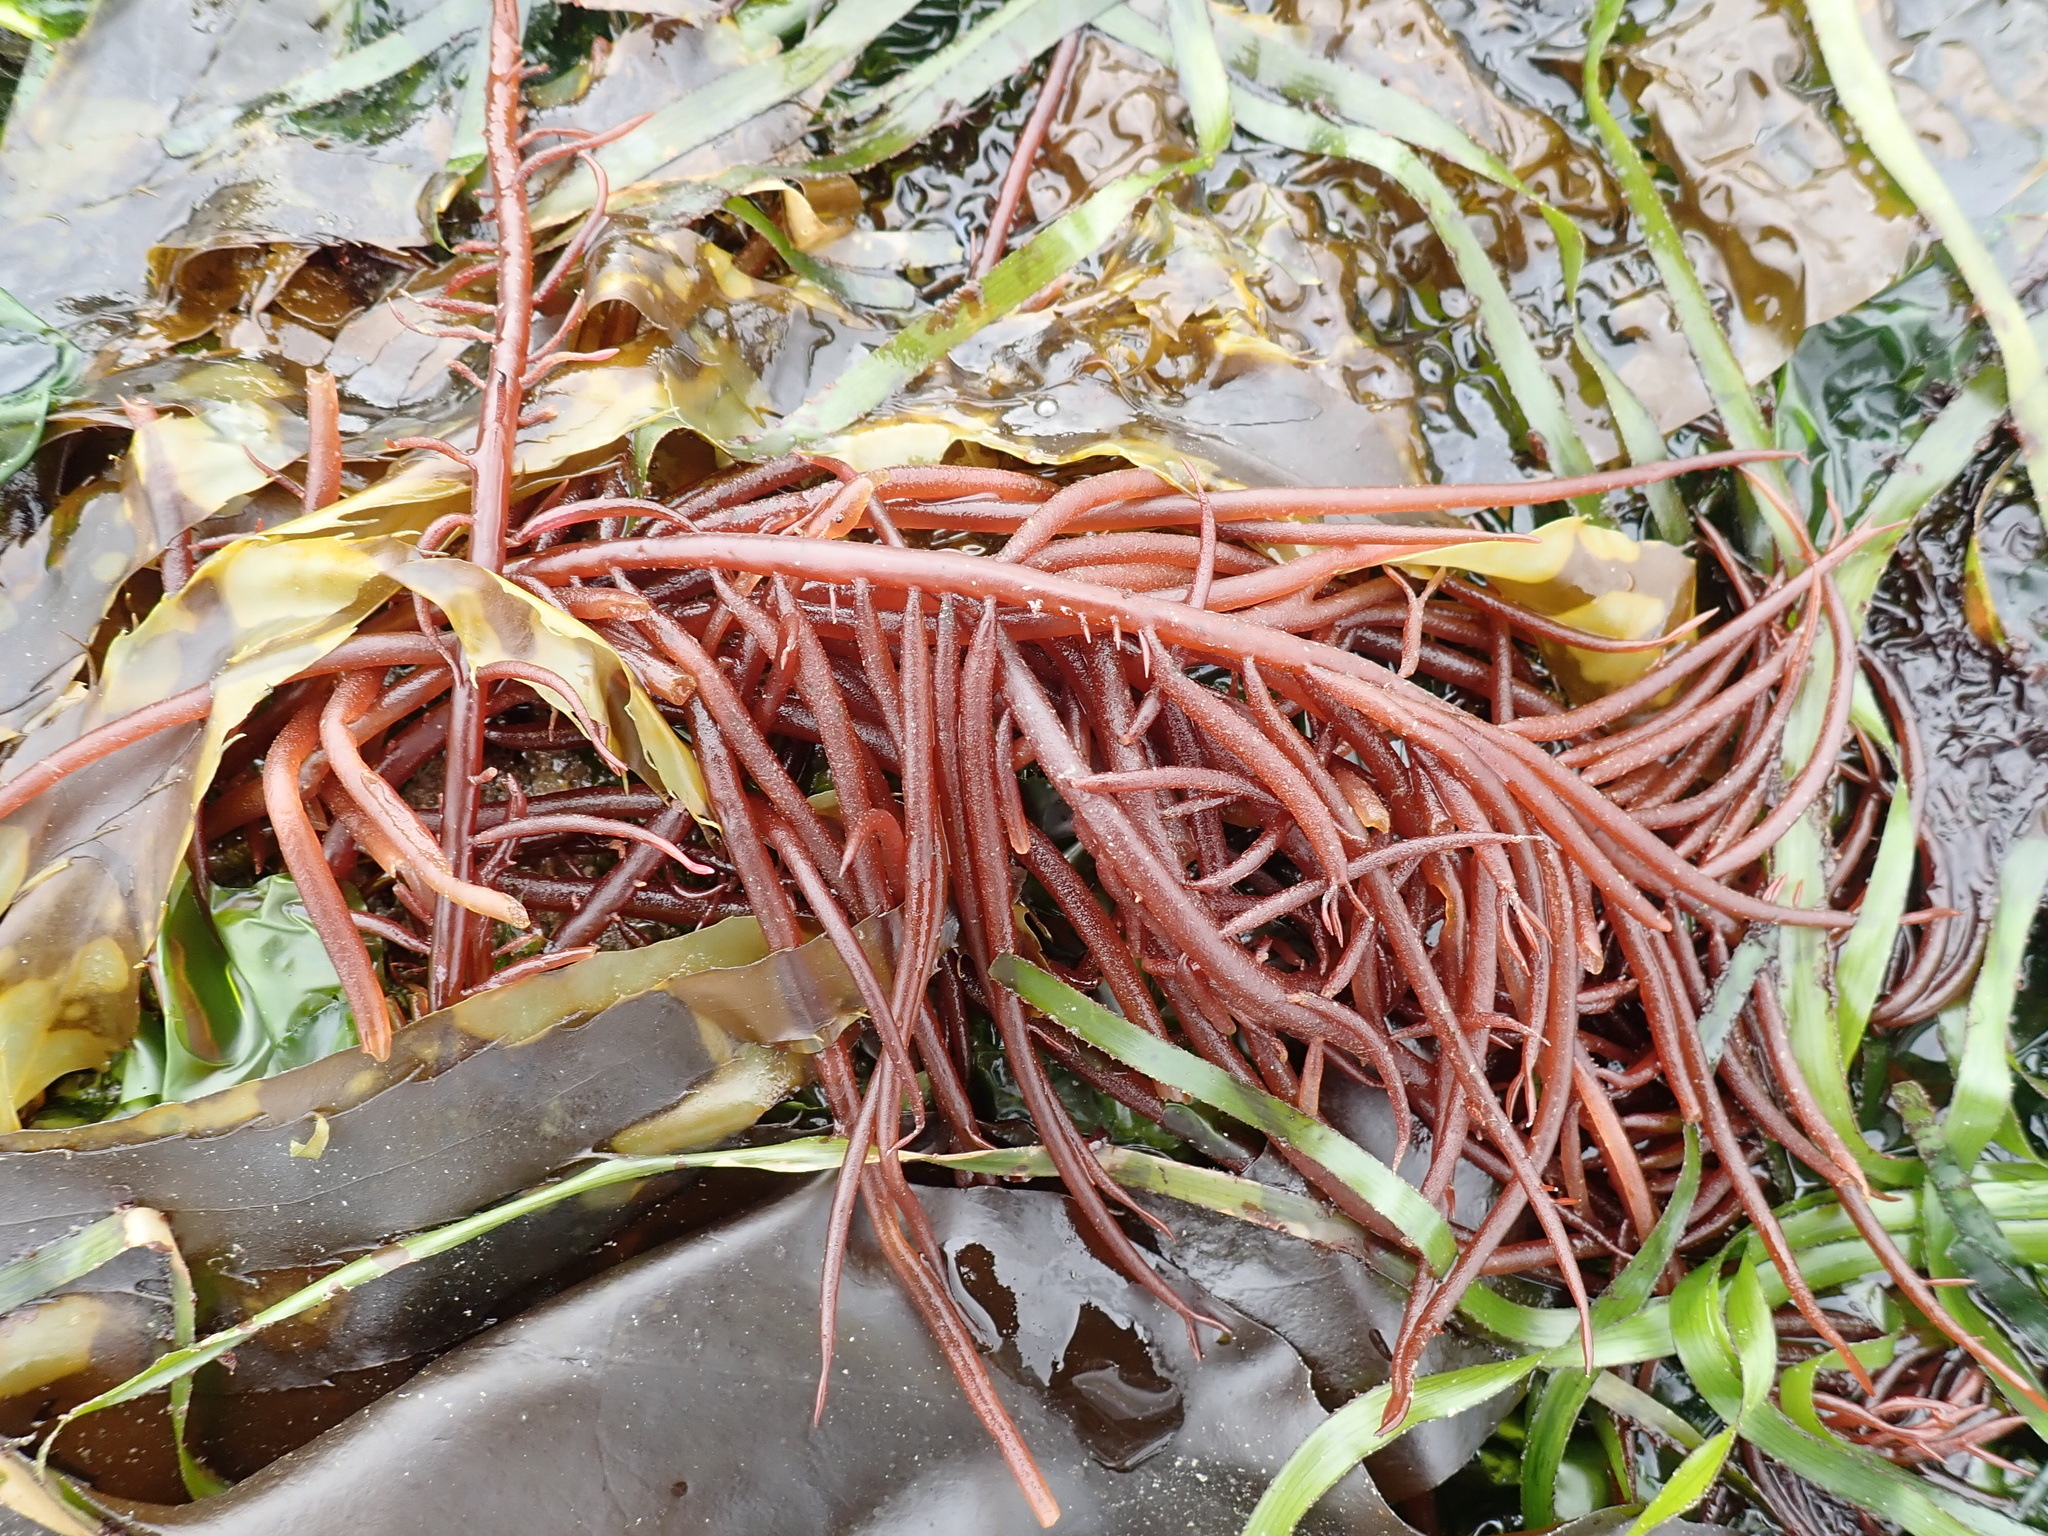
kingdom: Plantae
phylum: Rhodophyta
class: Florideophyceae
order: Gigartinales
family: Solieriaceae
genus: Sarcodiotheca
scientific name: Sarcodiotheca gaudichaudii
